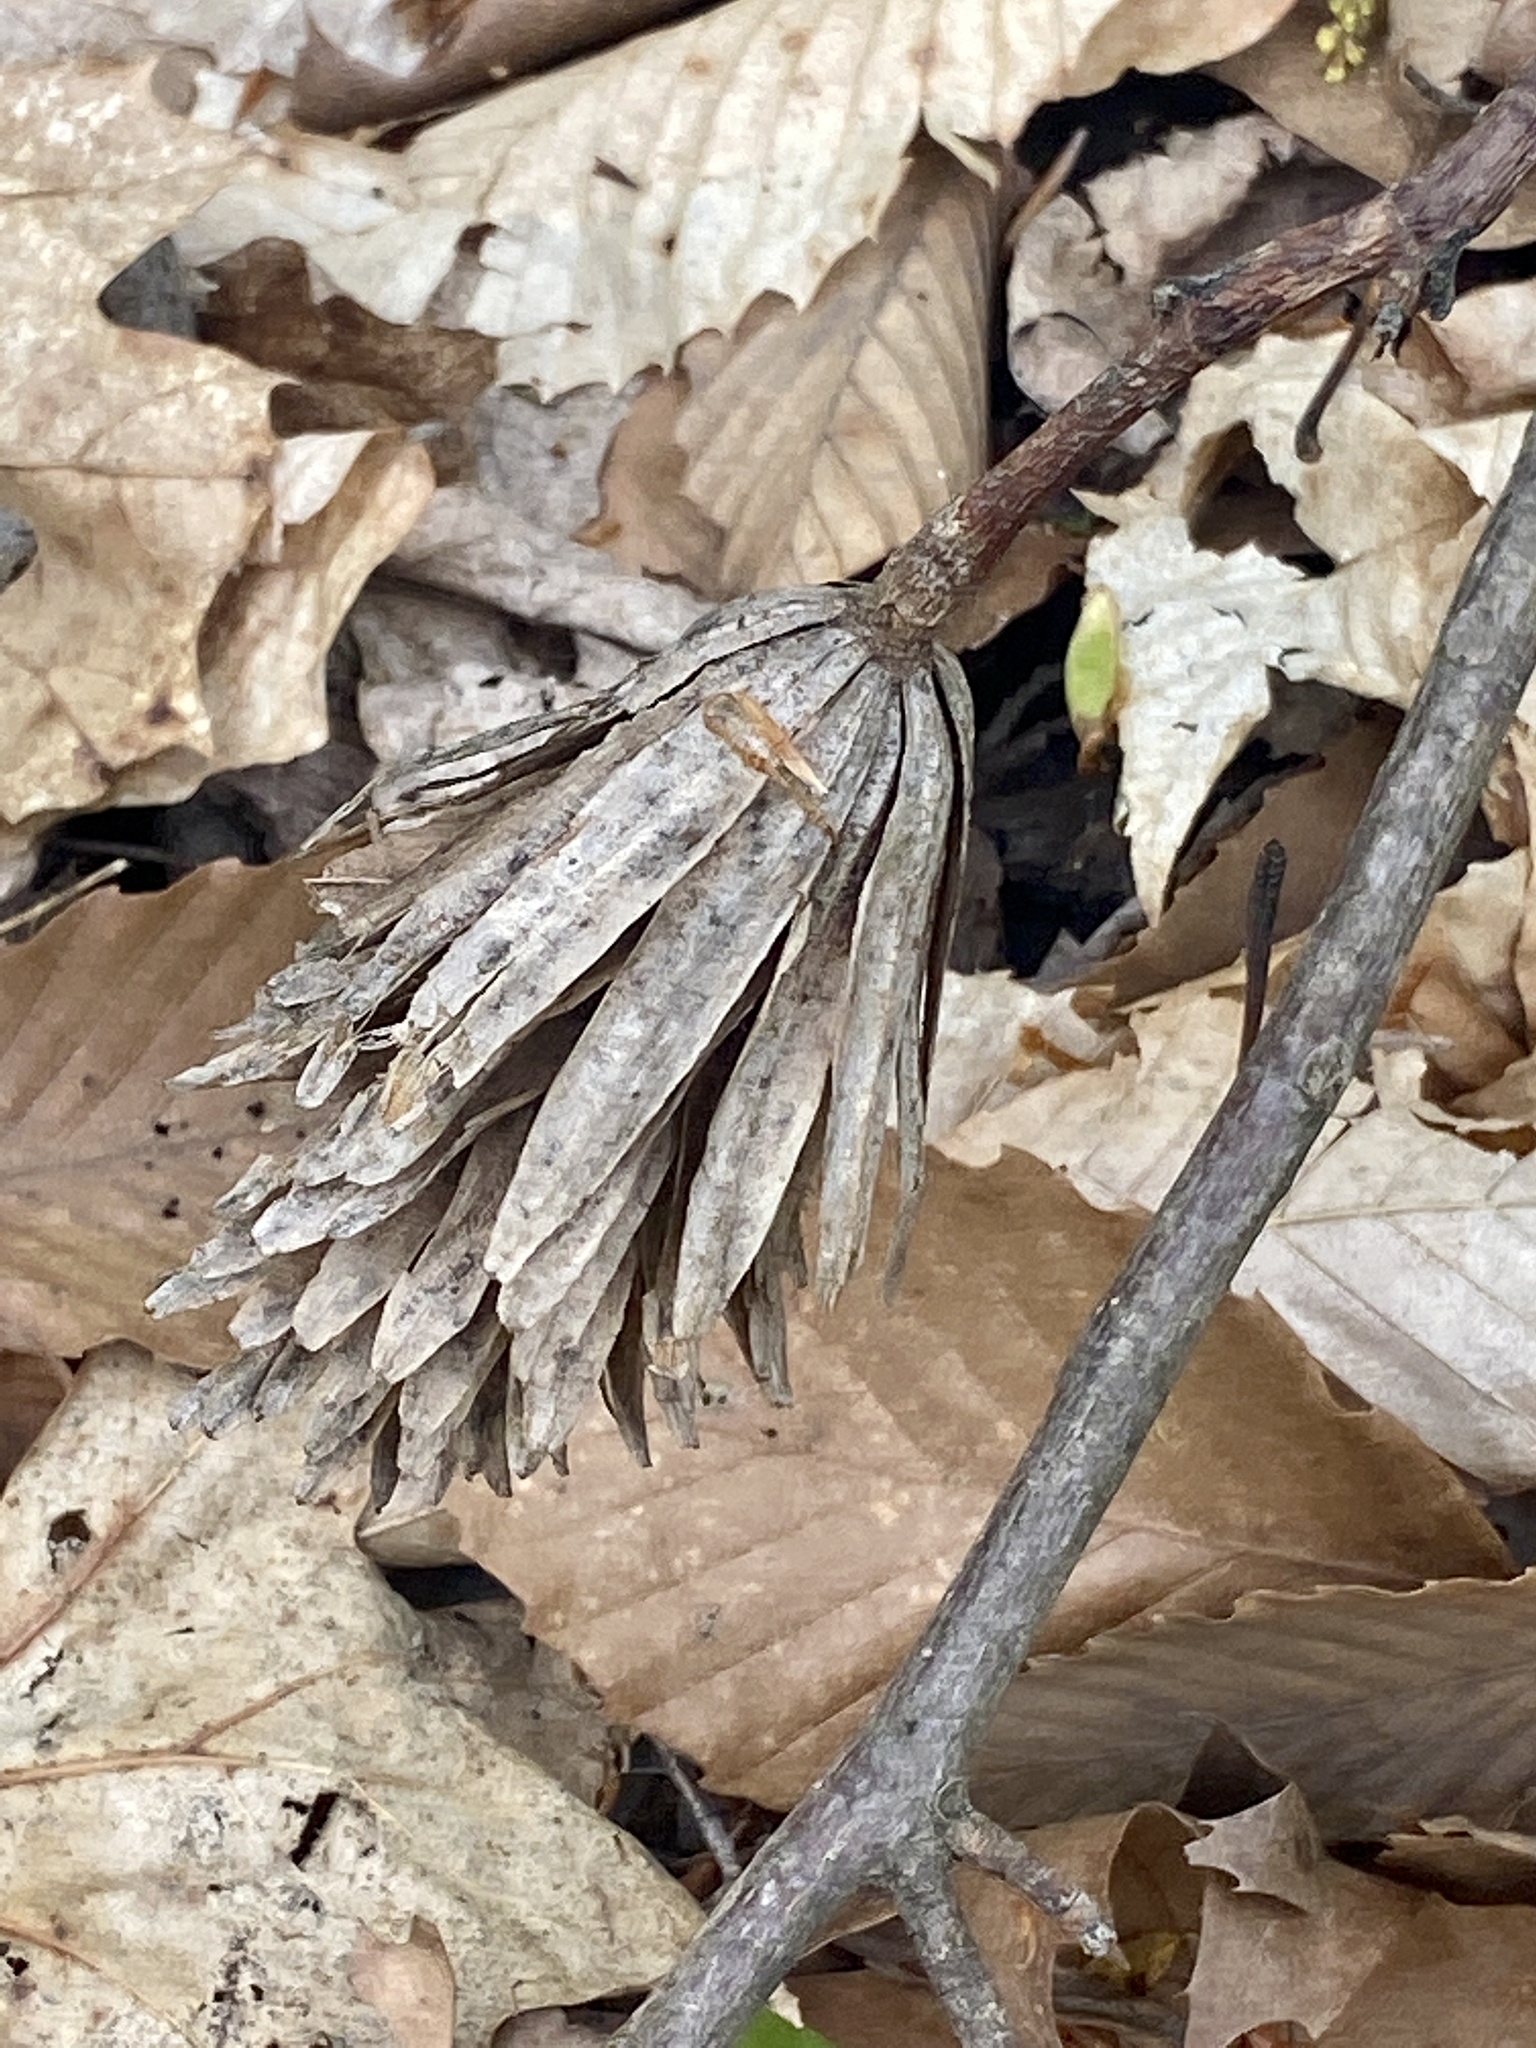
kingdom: Plantae
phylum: Tracheophyta
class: Magnoliopsida
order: Magnoliales
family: Magnoliaceae
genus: Liriodendron
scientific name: Liriodendron tulipifera
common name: Tulip tree
